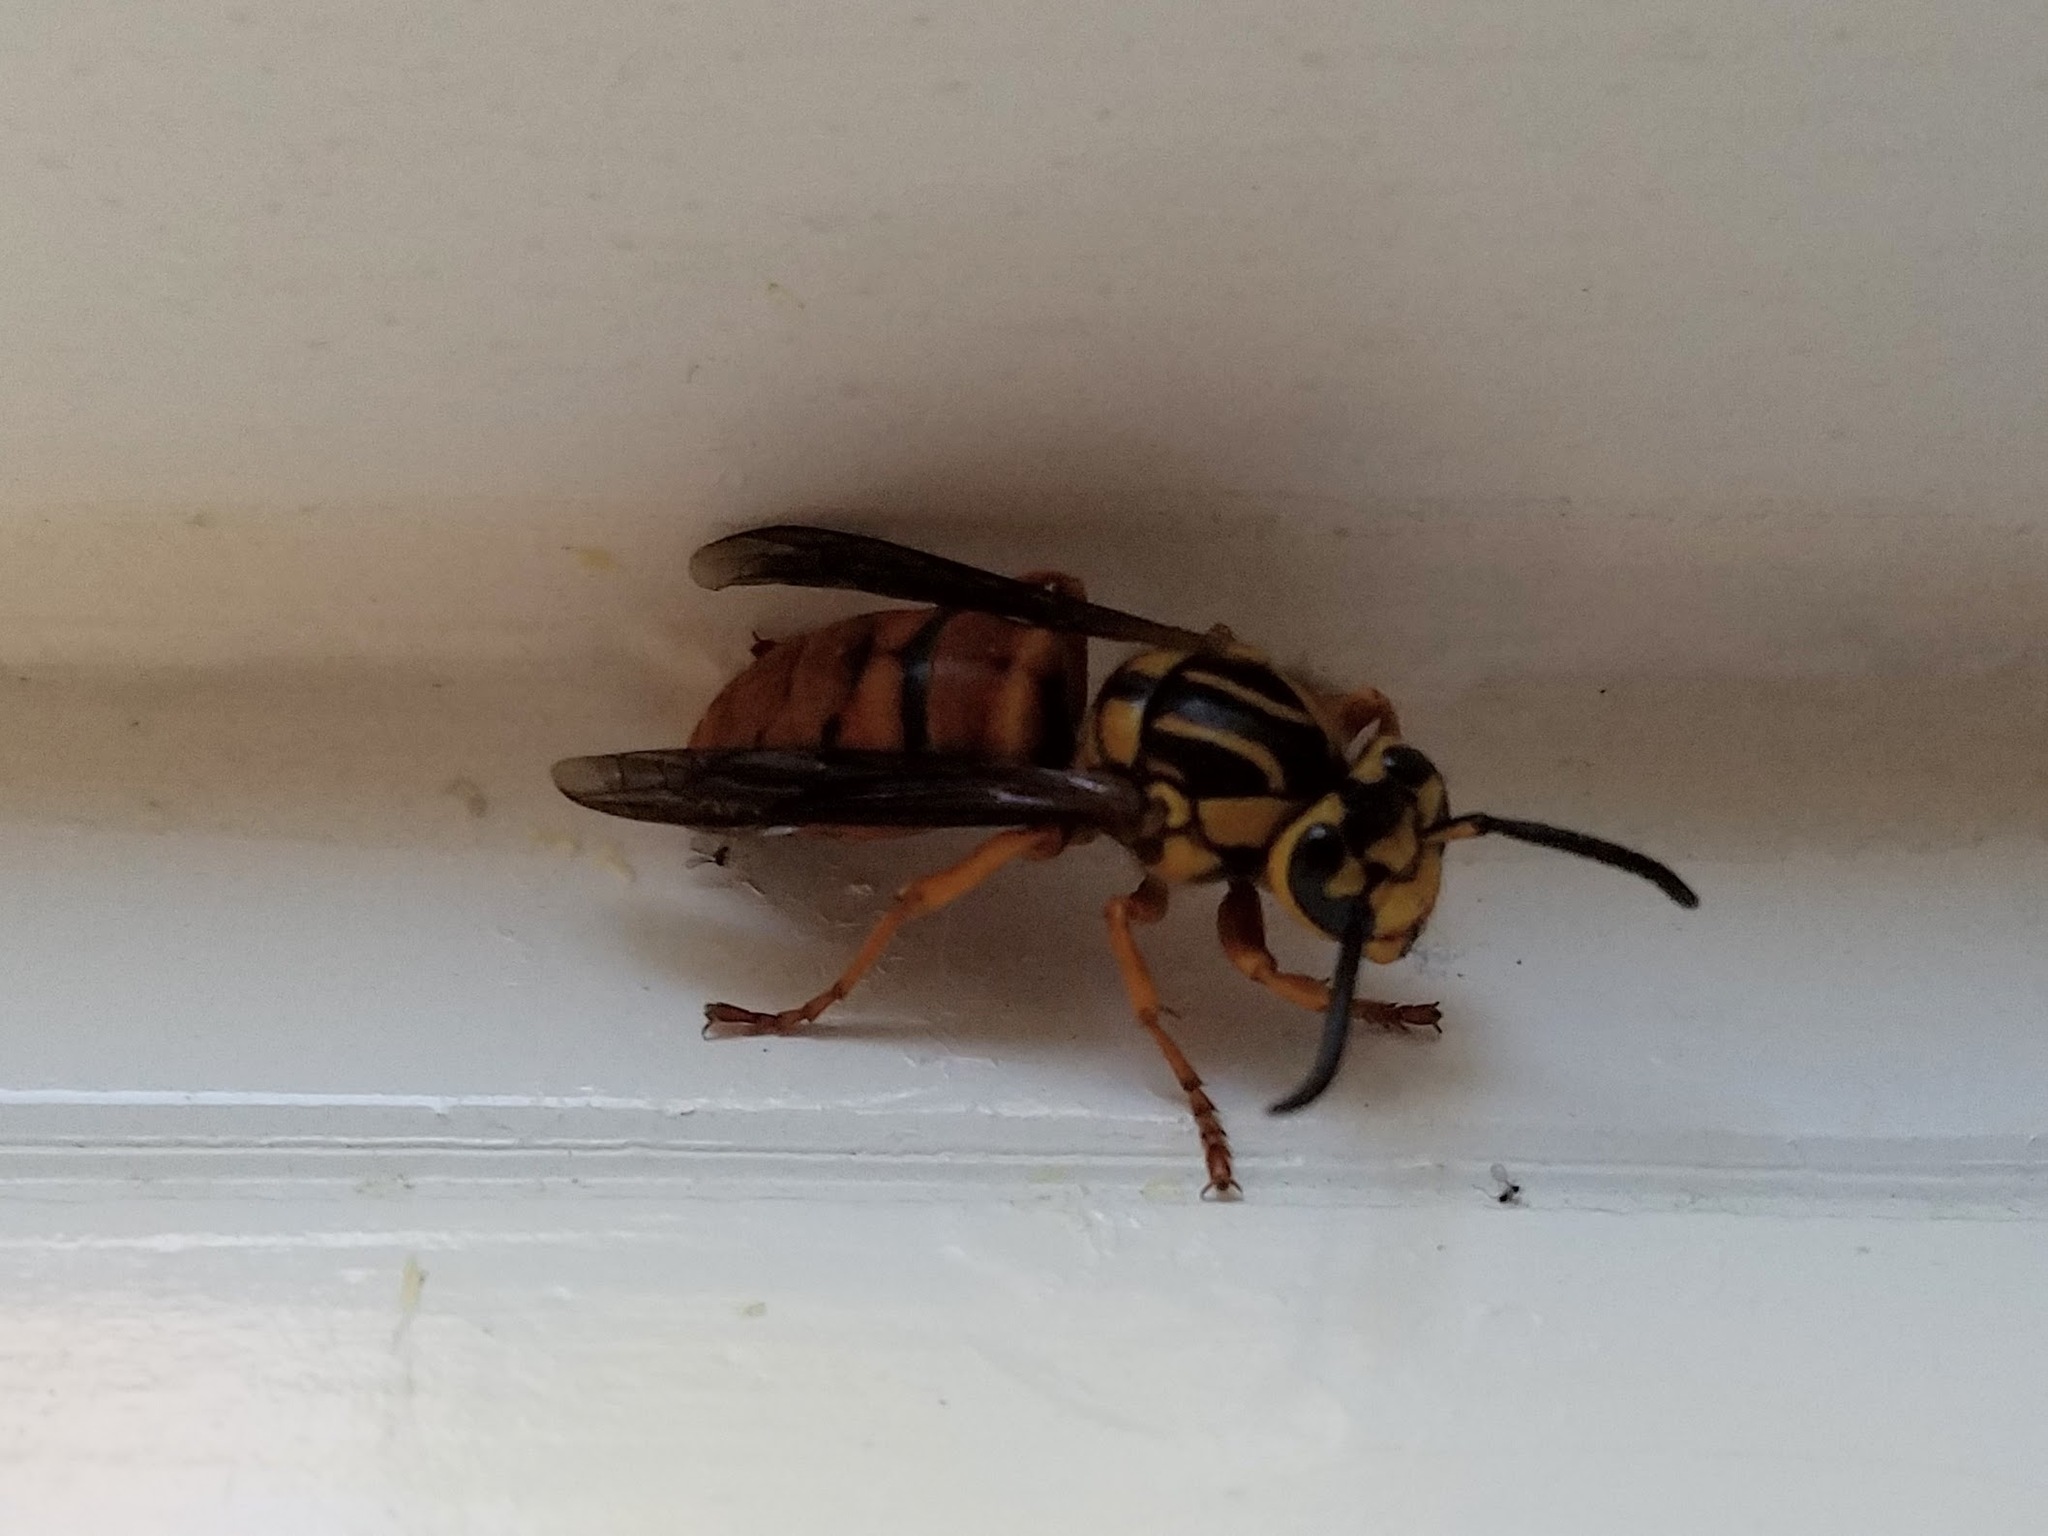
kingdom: Animalia
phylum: Arthropoda
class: Insecta
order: Hymenoptera
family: Vespidae
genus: Vespula
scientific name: Vespula squamosa
